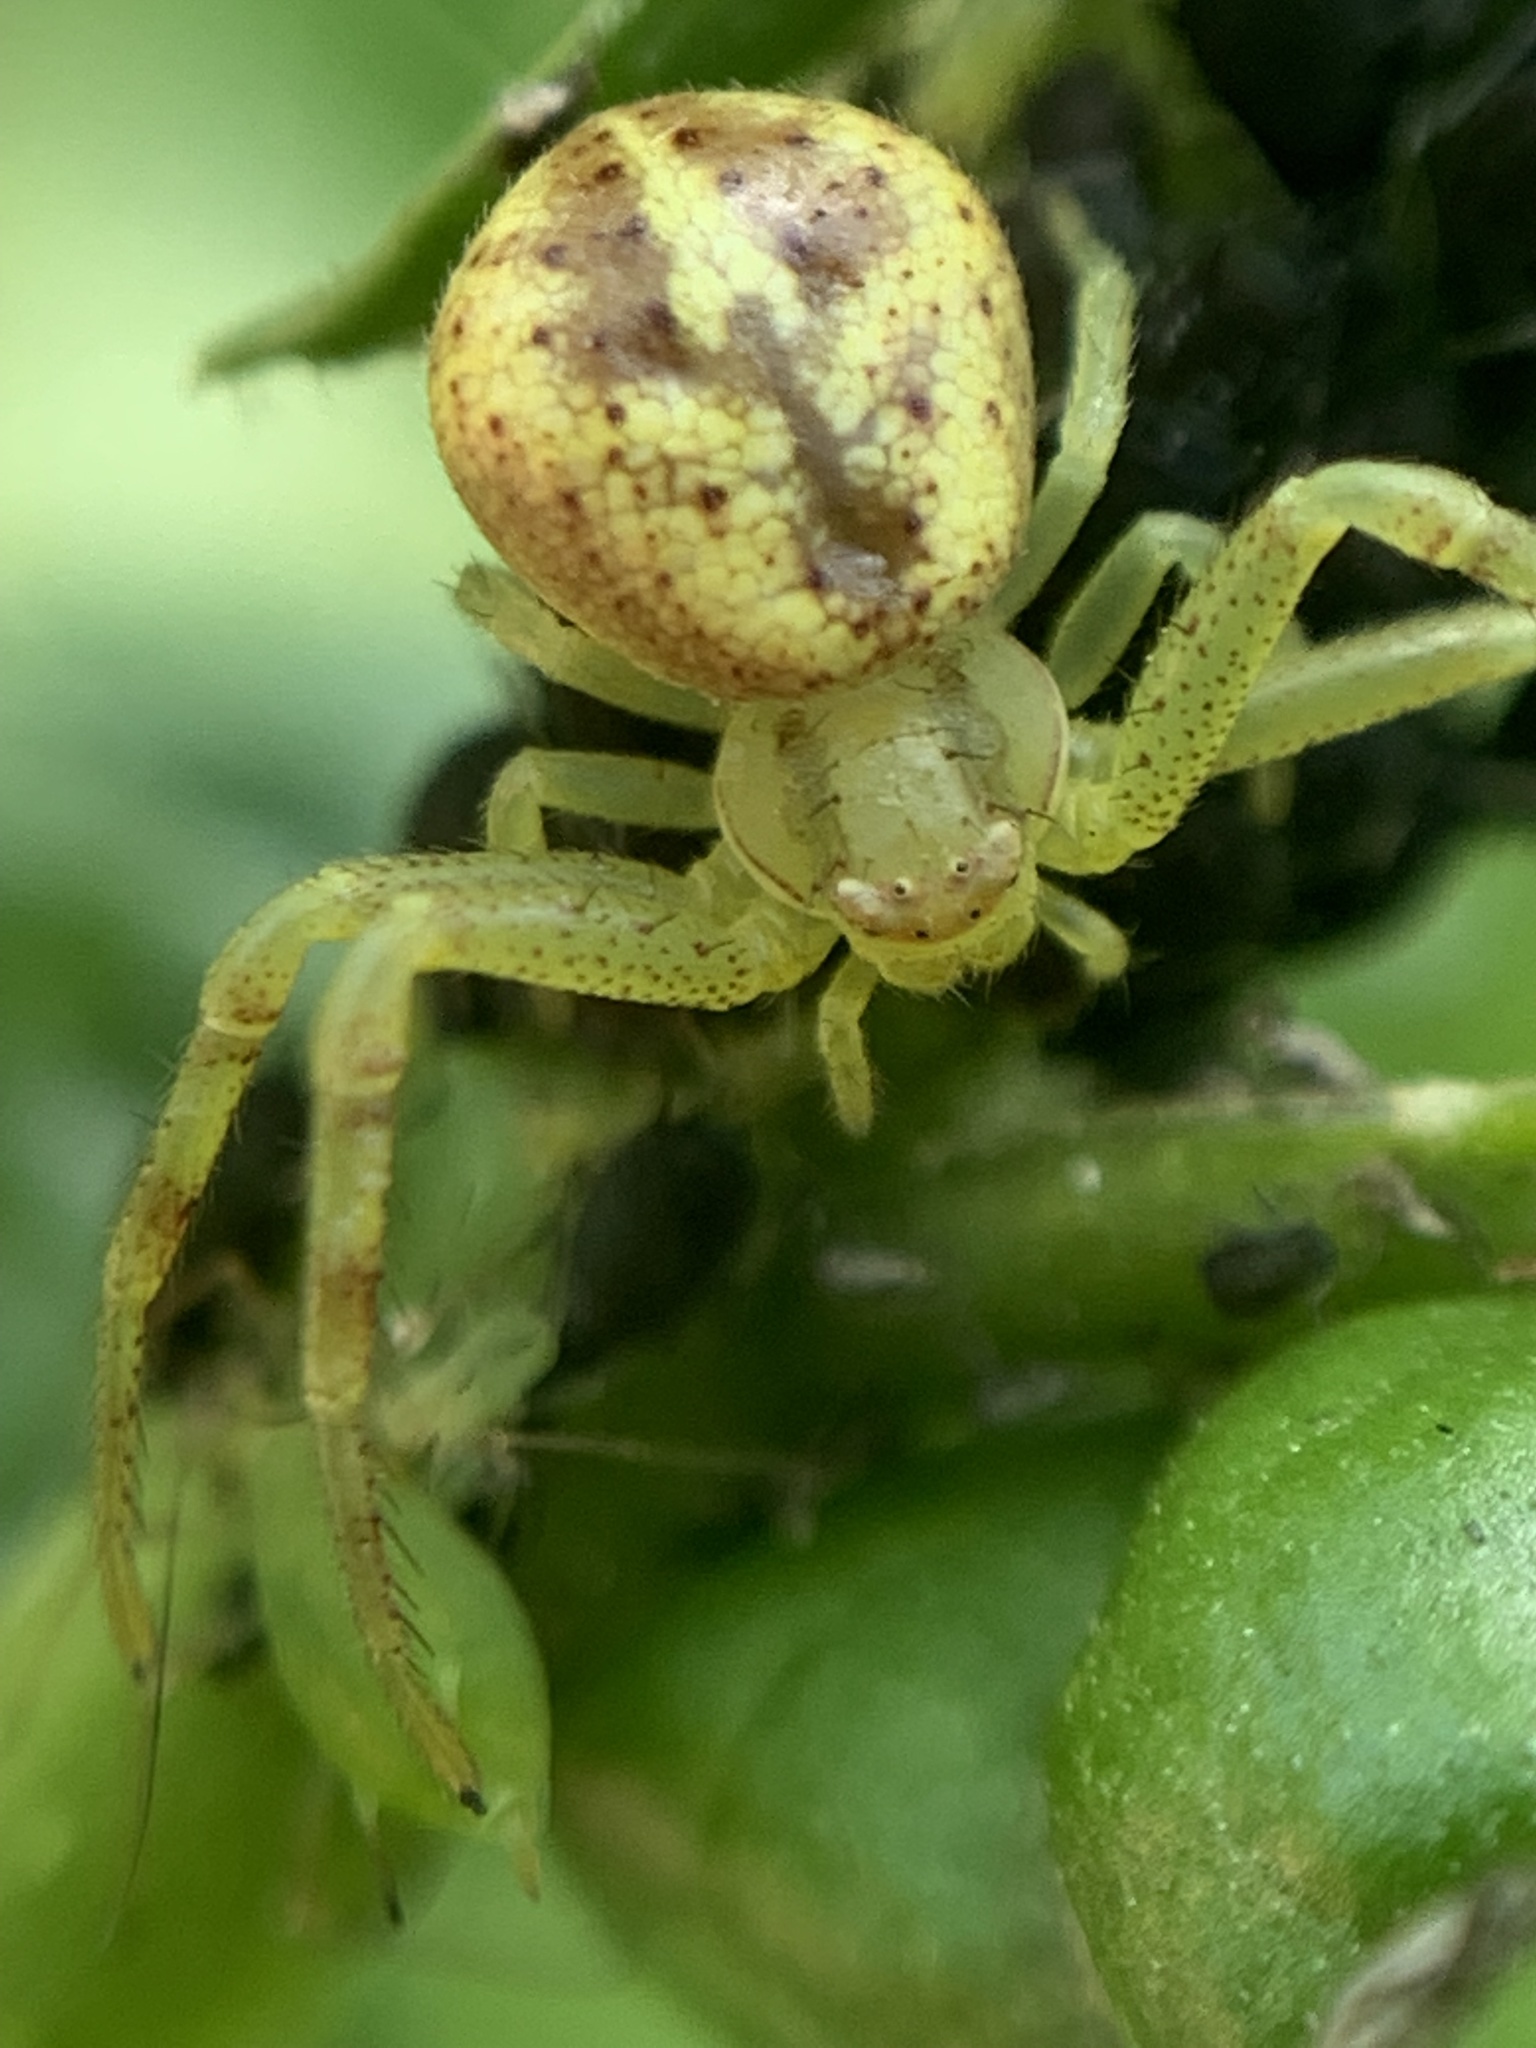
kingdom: Animalia
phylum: Arthropoda
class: Arachnida
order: Araneae
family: Thomisidae
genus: Misumenops
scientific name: Misumenops
